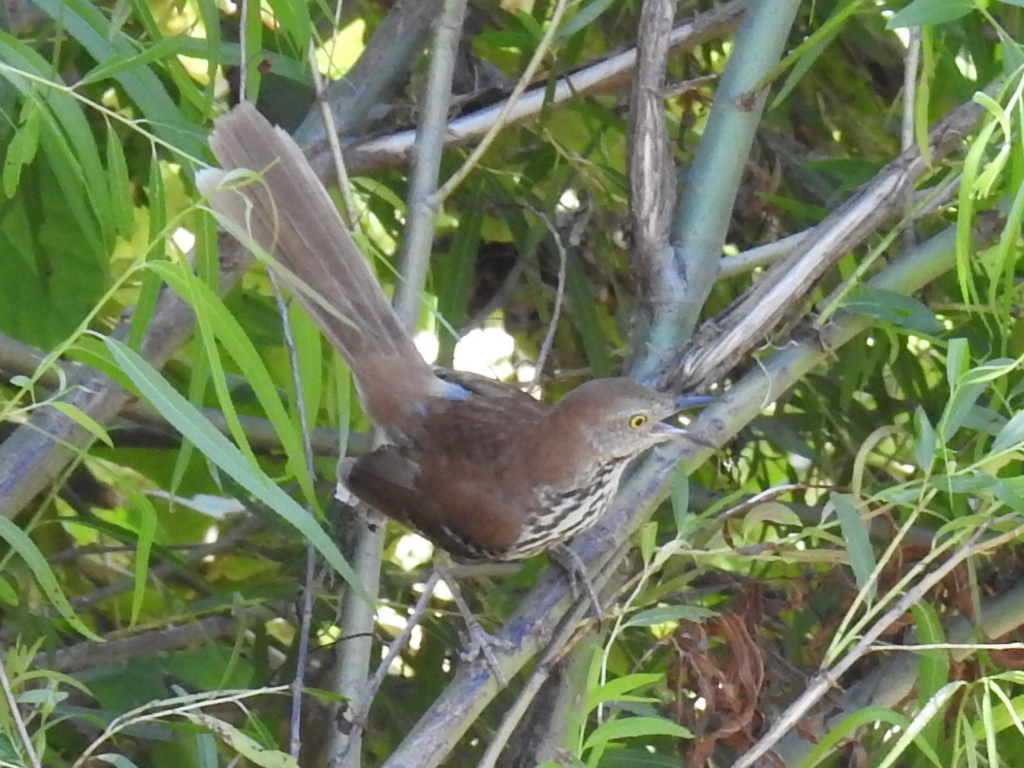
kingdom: Animalia
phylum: Chordata
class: Aves
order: Passeriformes
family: Mimidae
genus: Toxostoma
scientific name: Toxostoma rufum
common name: Brown thrasher
